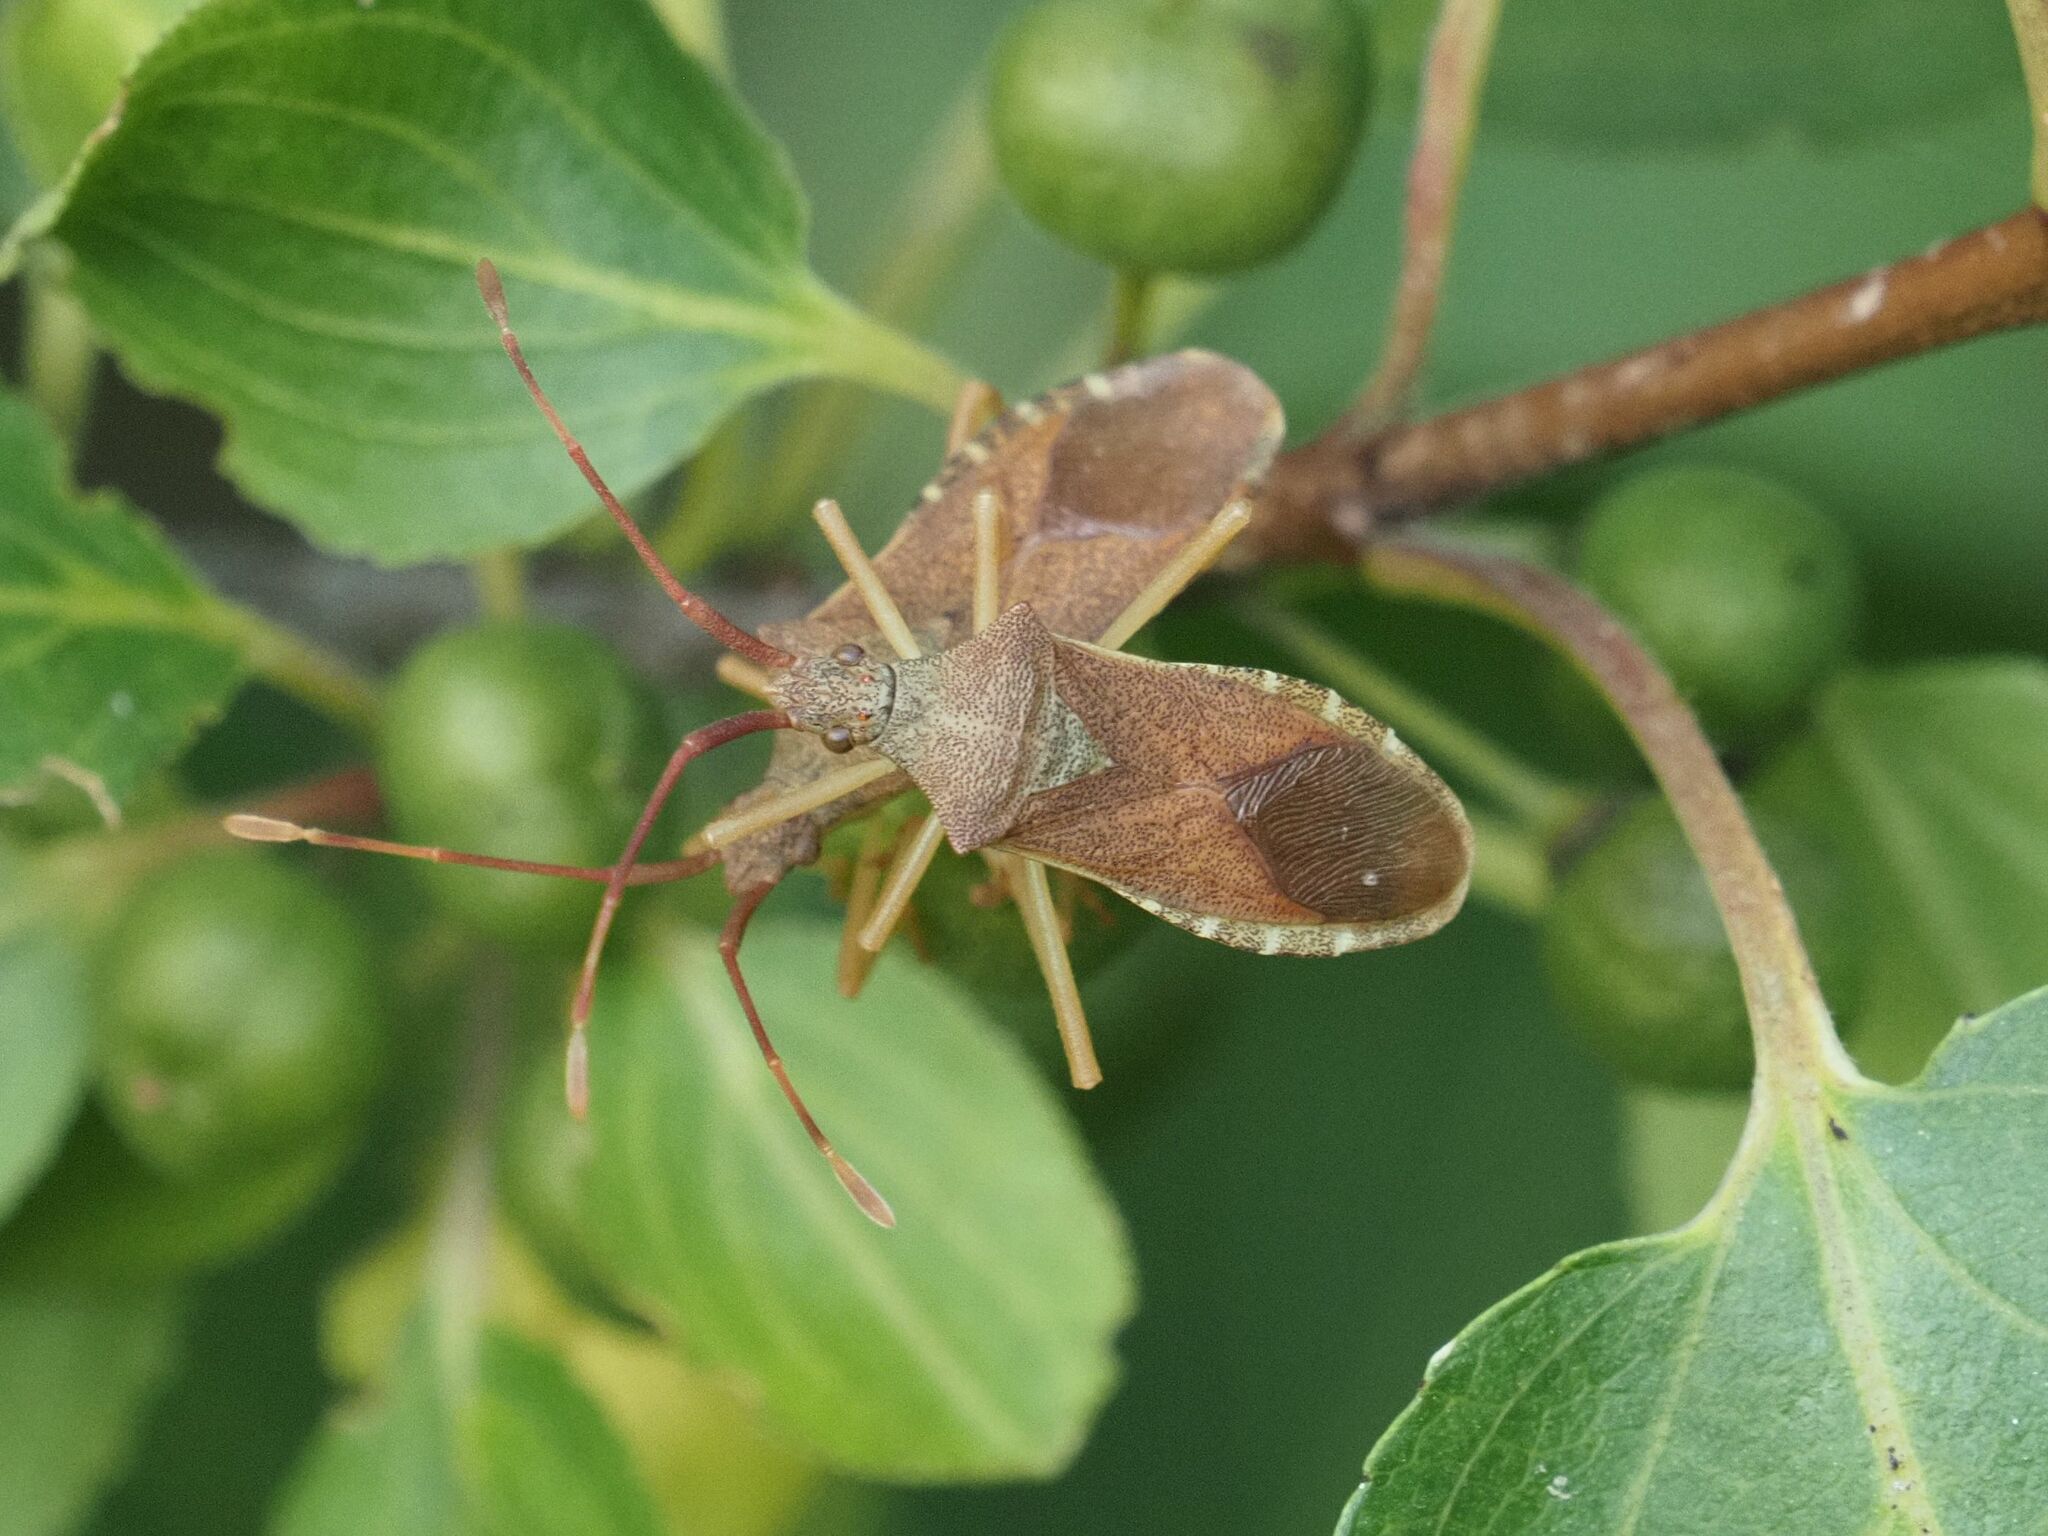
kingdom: Animalia
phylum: Arthropoda
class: Insecta
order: Hemiptera
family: Coreidae
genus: Gonocerus
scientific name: Gonocerus acuteangulatus
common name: Box bug
